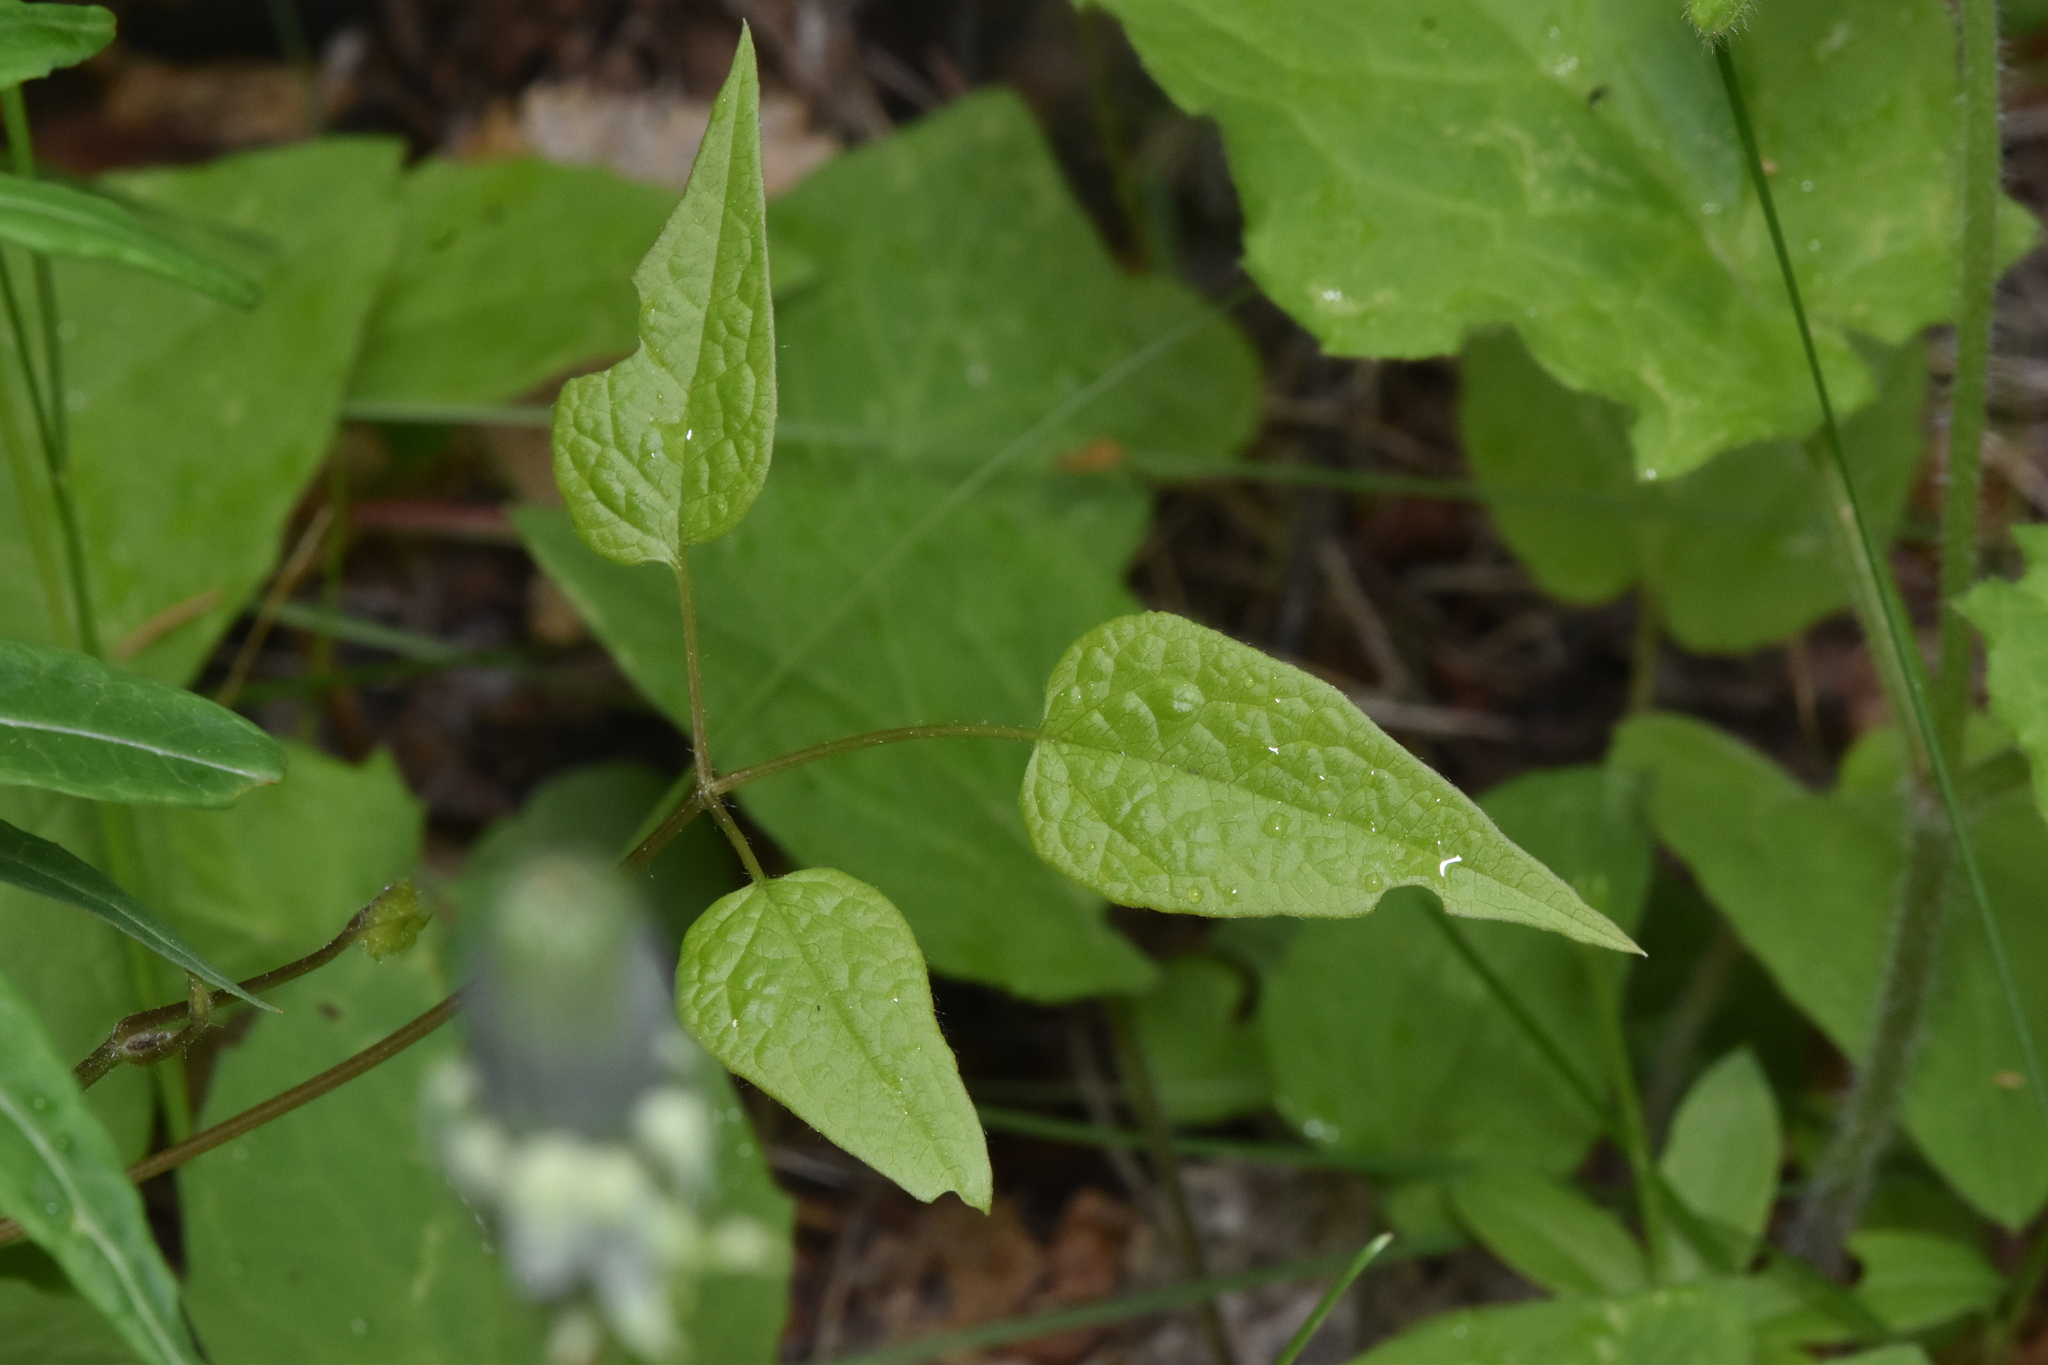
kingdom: Plantae
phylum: Tracheophyta
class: Magnoliopsida
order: Ranunculales
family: Ranunculaceae
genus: Clematis
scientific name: Clematis occidentalis
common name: Purple clematis
